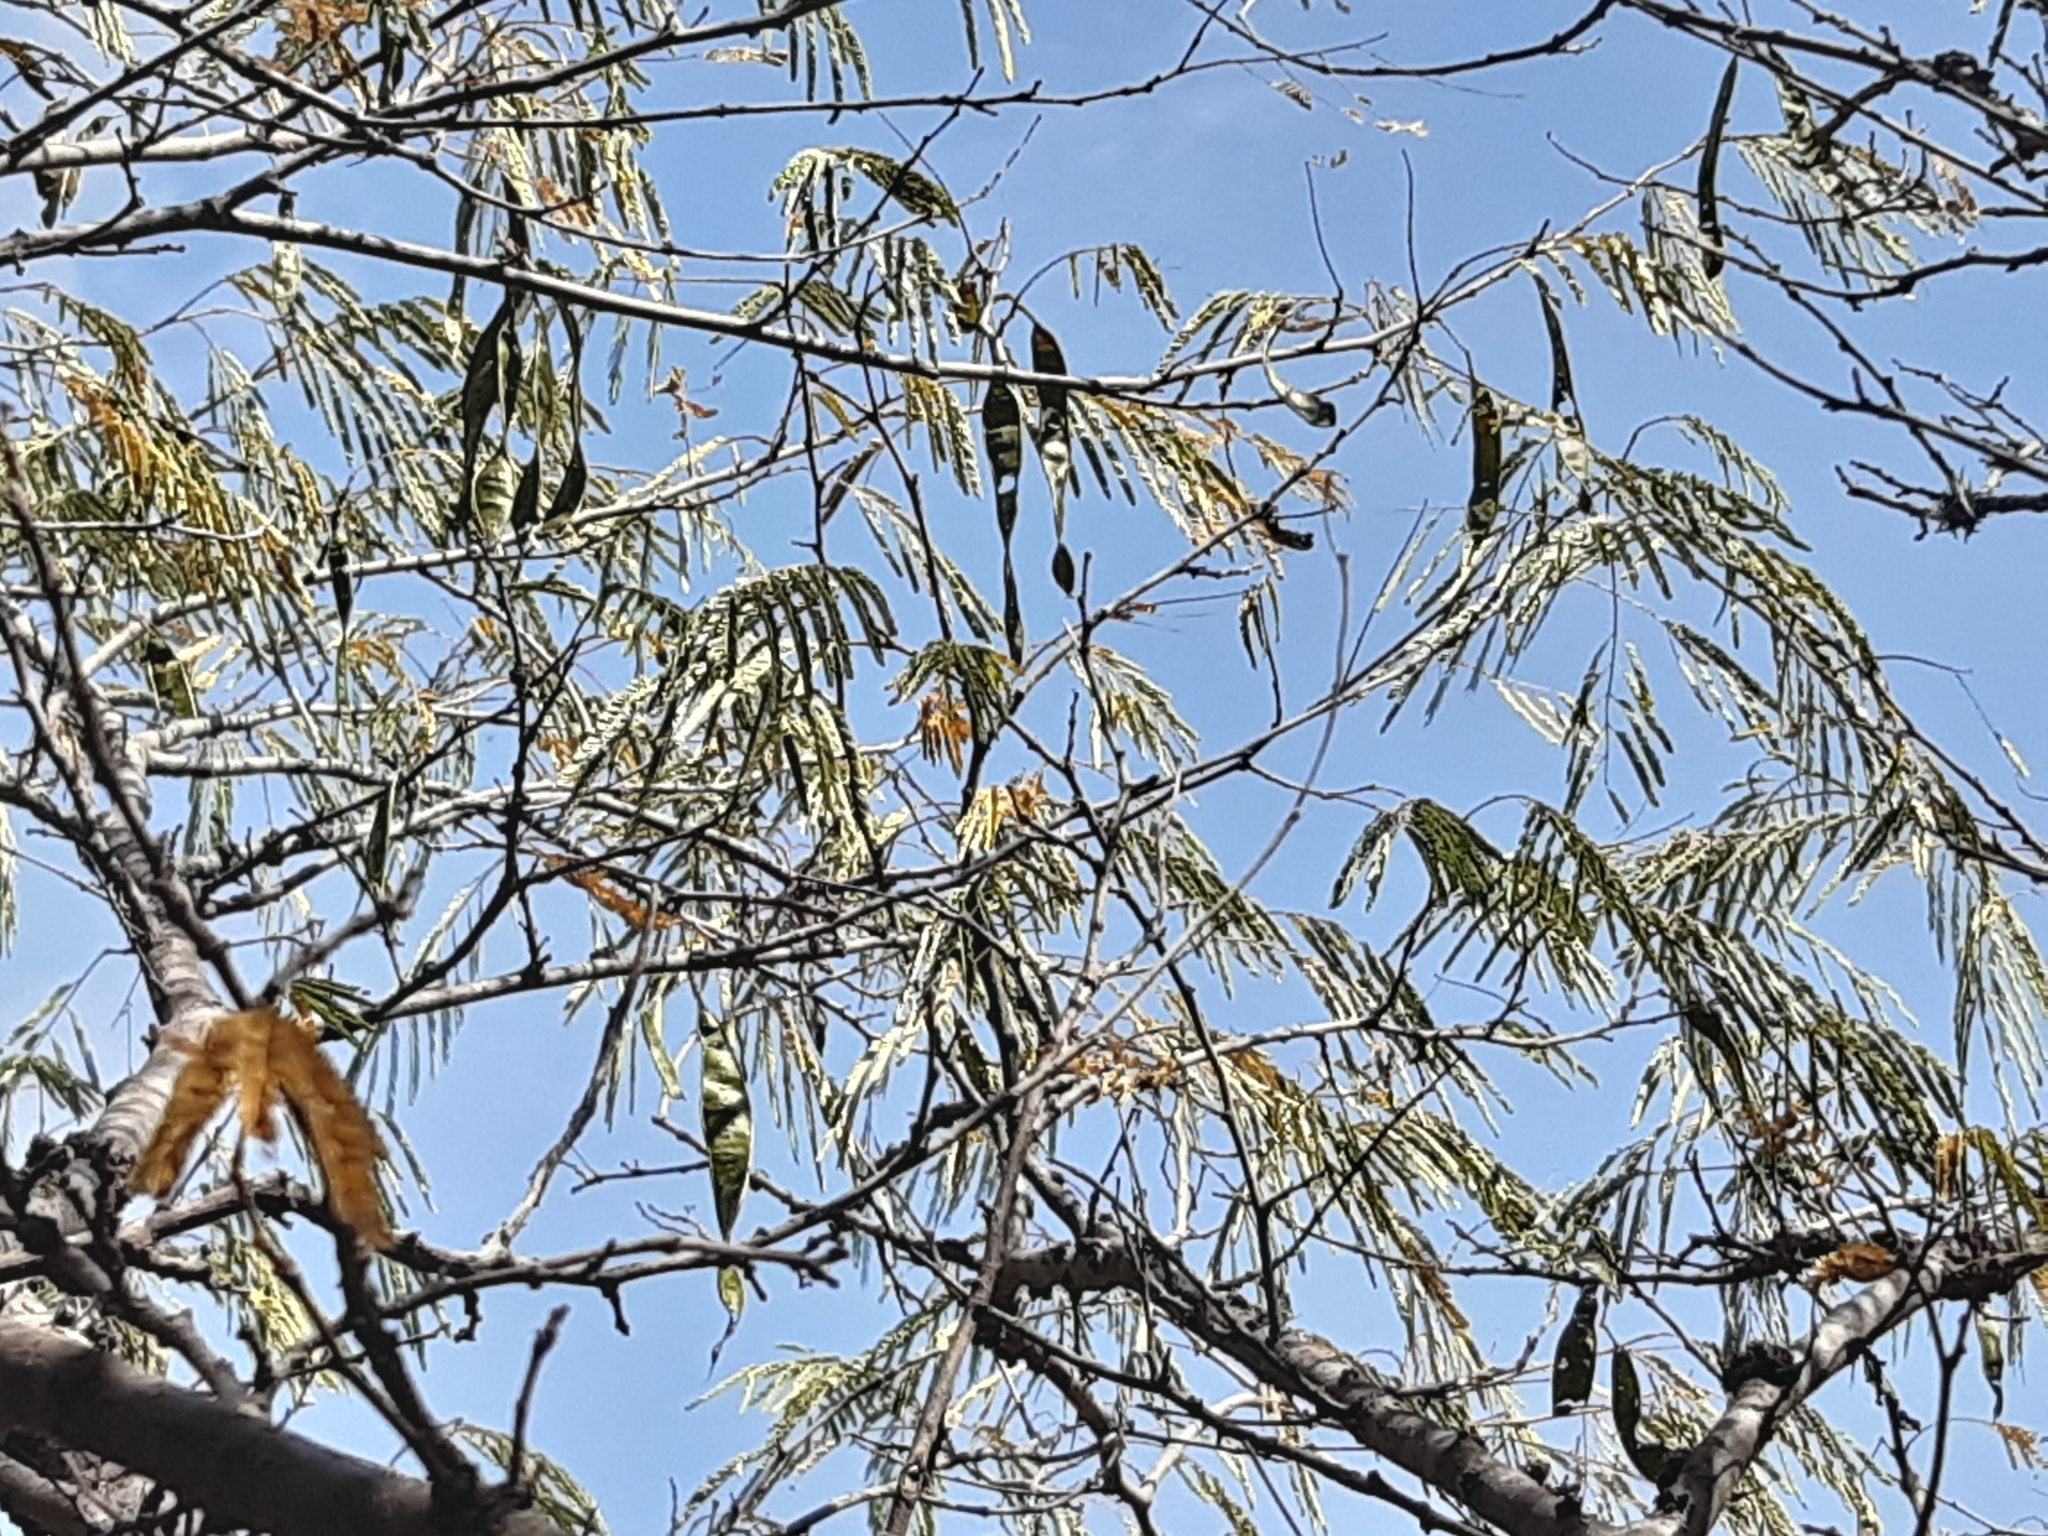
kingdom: Plantae
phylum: Tracheophyta
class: Magnoliopsida
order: Fabales
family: Fabaceae
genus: Lysiloma
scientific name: Lysiloma divaricatum
